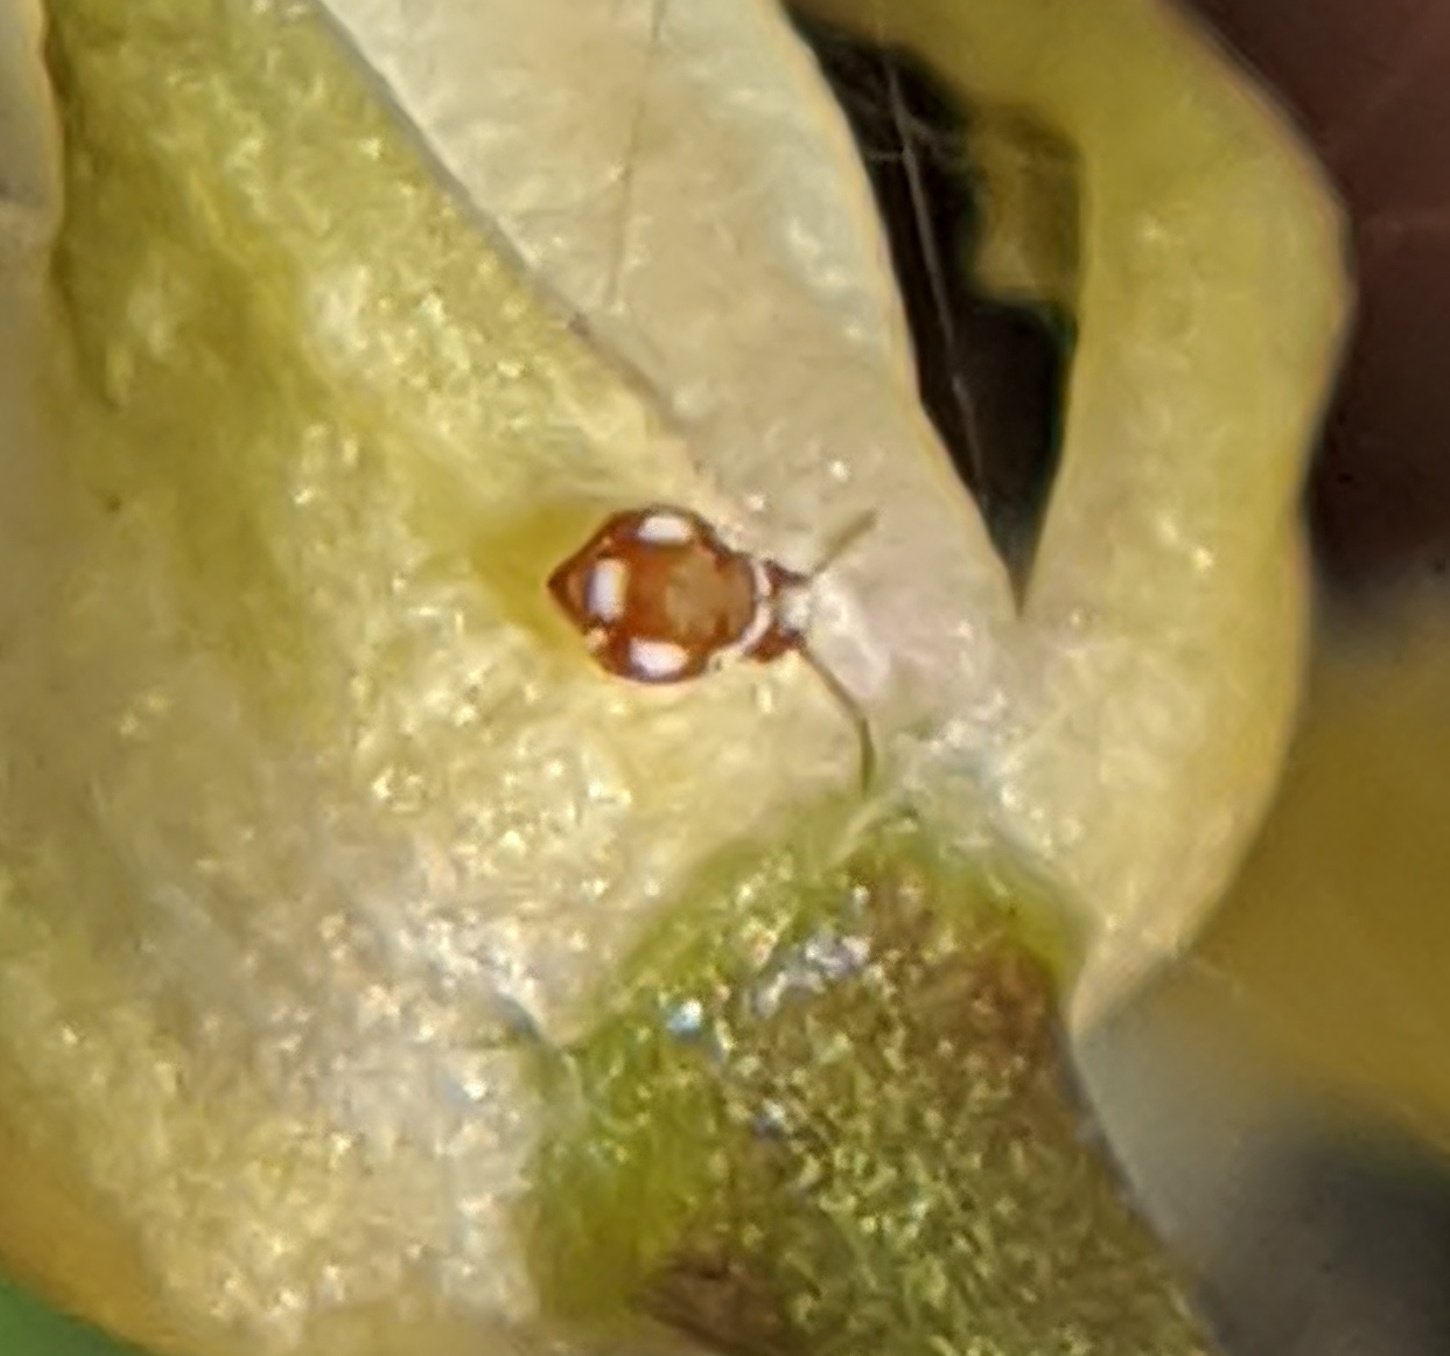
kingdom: Animalia
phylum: Arthropoda
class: Collembola
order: Symphypleona
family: Katiannidae
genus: Katiannina
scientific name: Katiannina macgillivrayi
